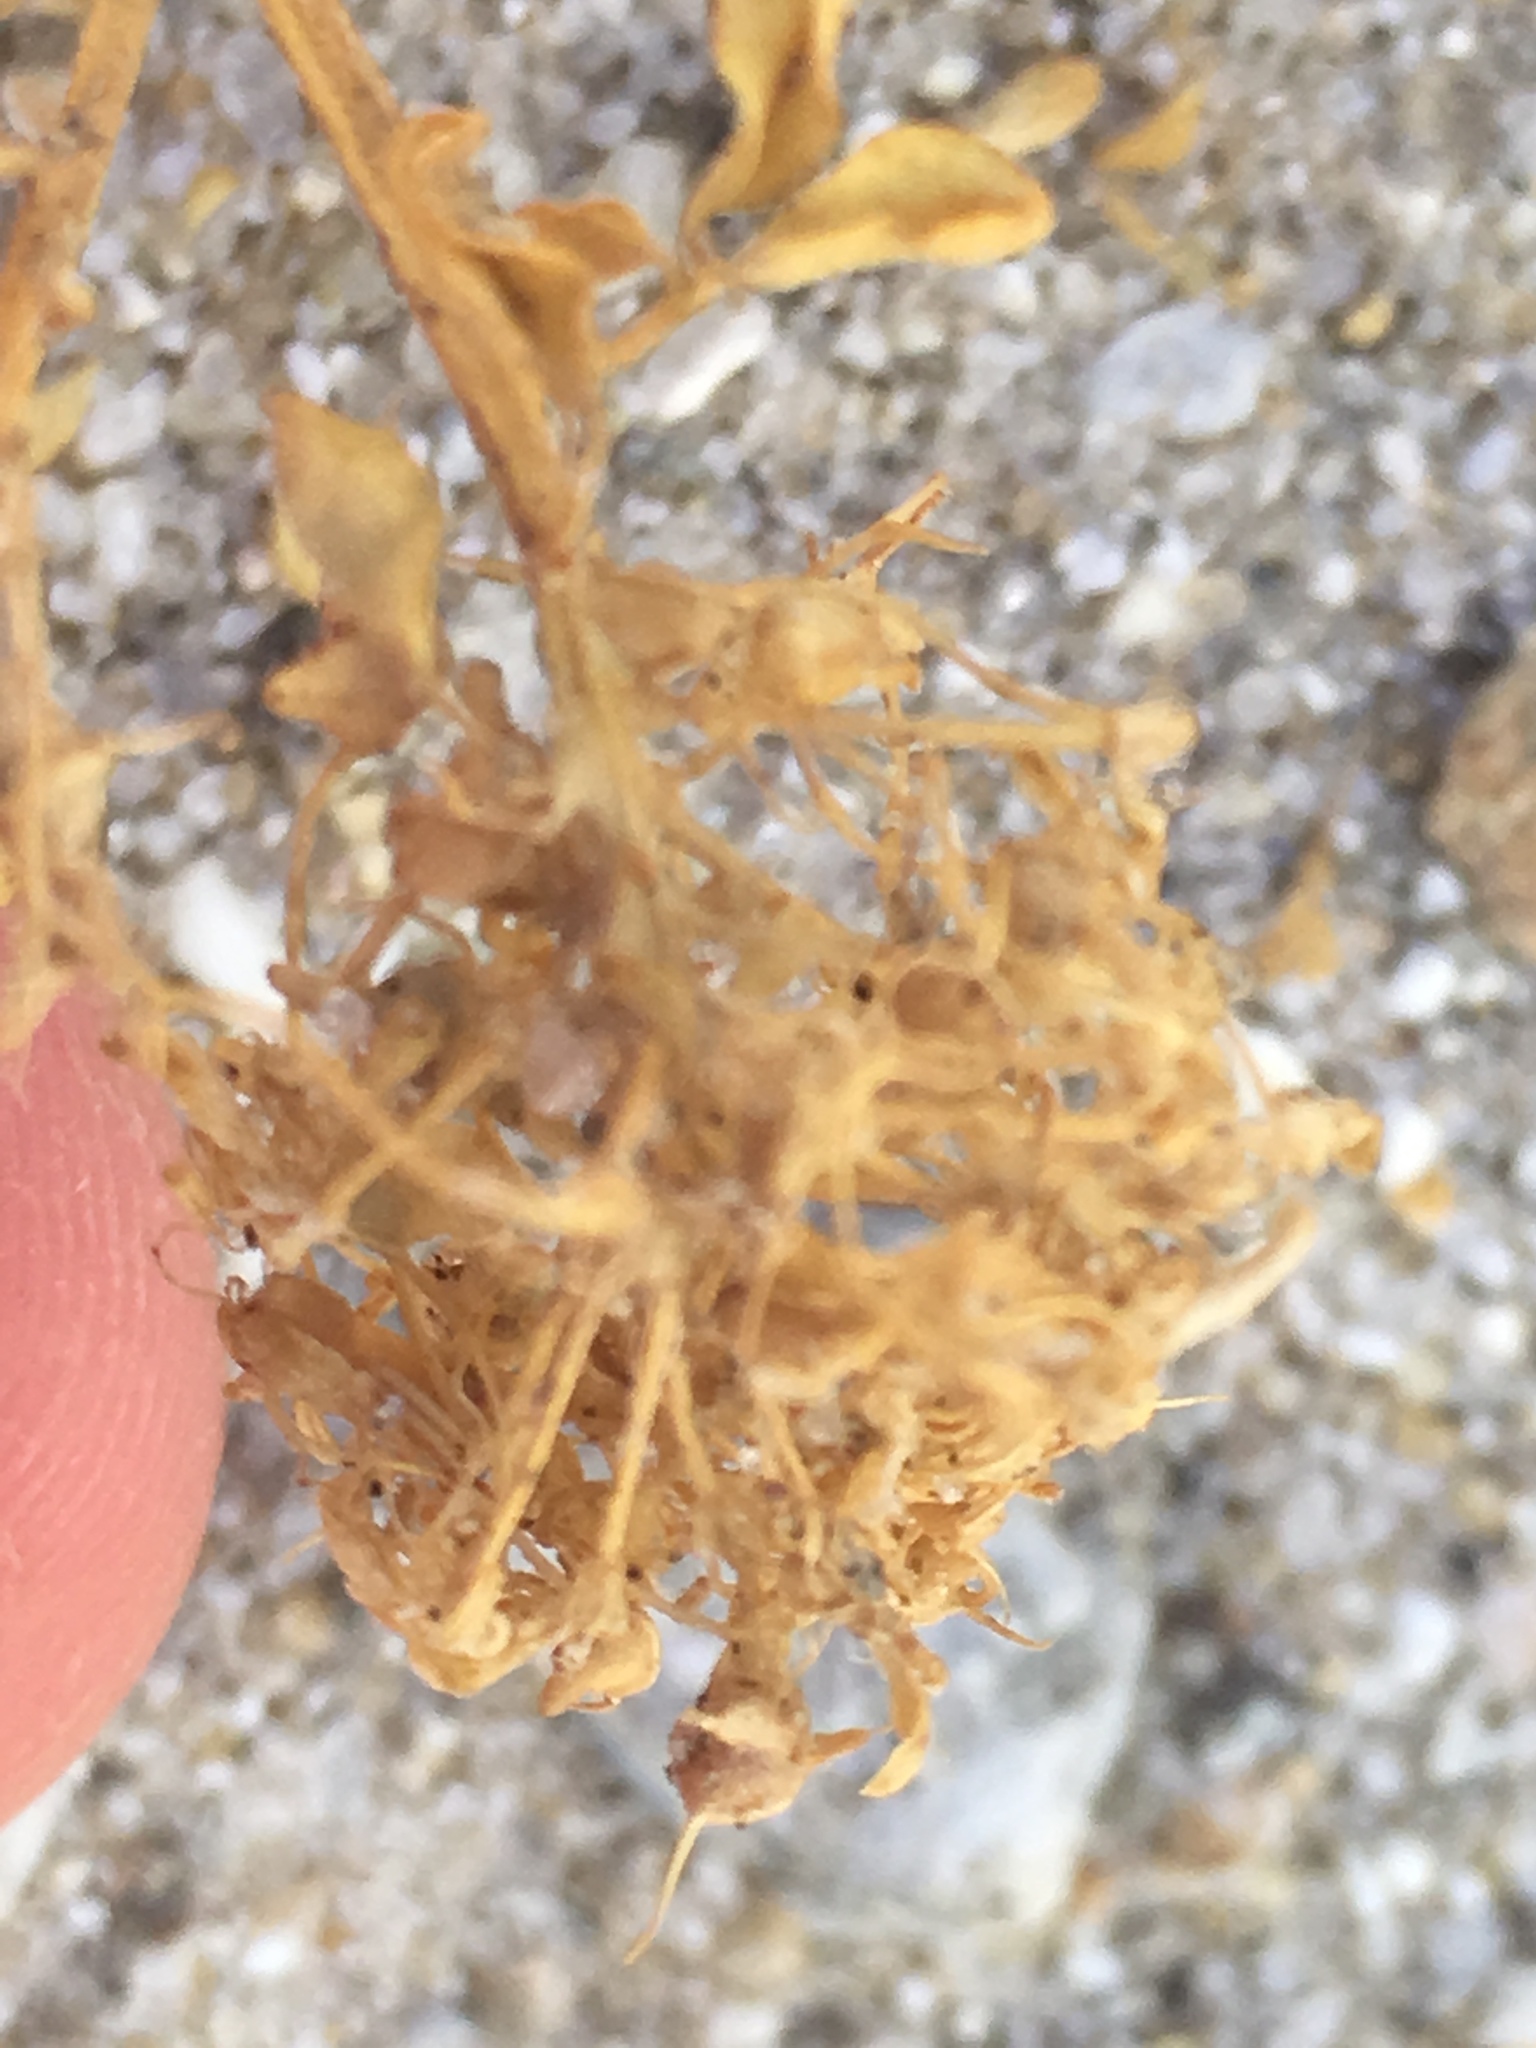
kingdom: Plantae
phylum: Tracheophyta
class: Magnoliopsida
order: Brassicales
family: Cleomaceae
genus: Cleomella
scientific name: Cleomella obtusifolia
